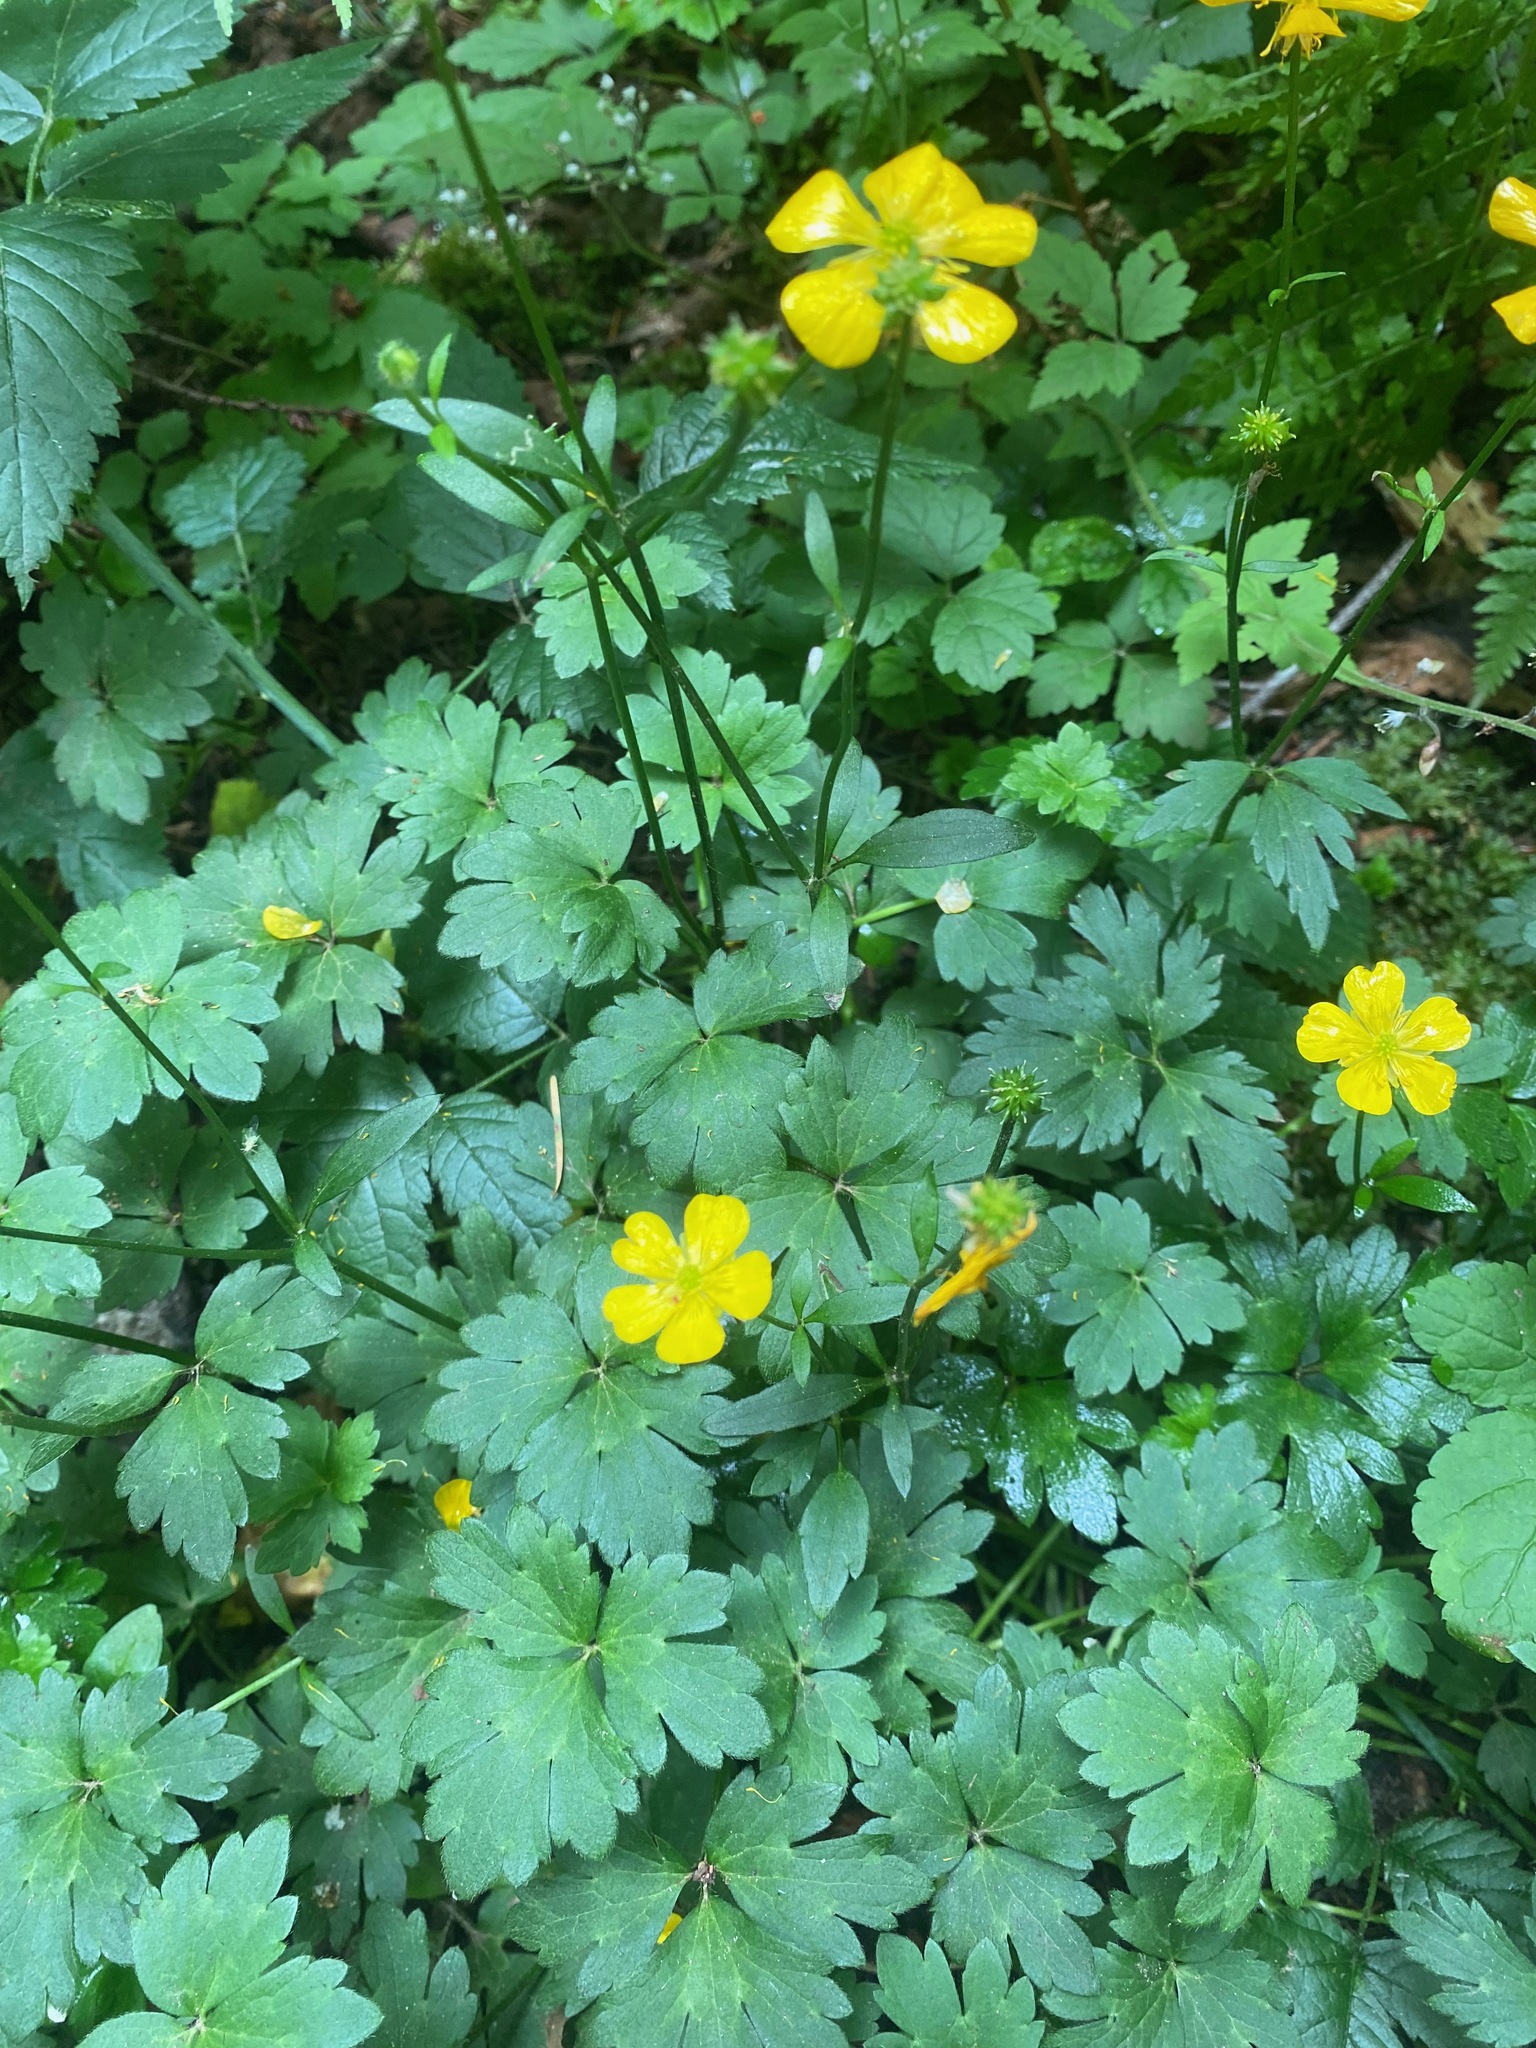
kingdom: Plantae
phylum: Tracheophyta
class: Magnoliopsida
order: Ranunculales
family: Ranunculaceae
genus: Ranunculus
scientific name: Ranunculus repens
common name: Creeping buttercup
